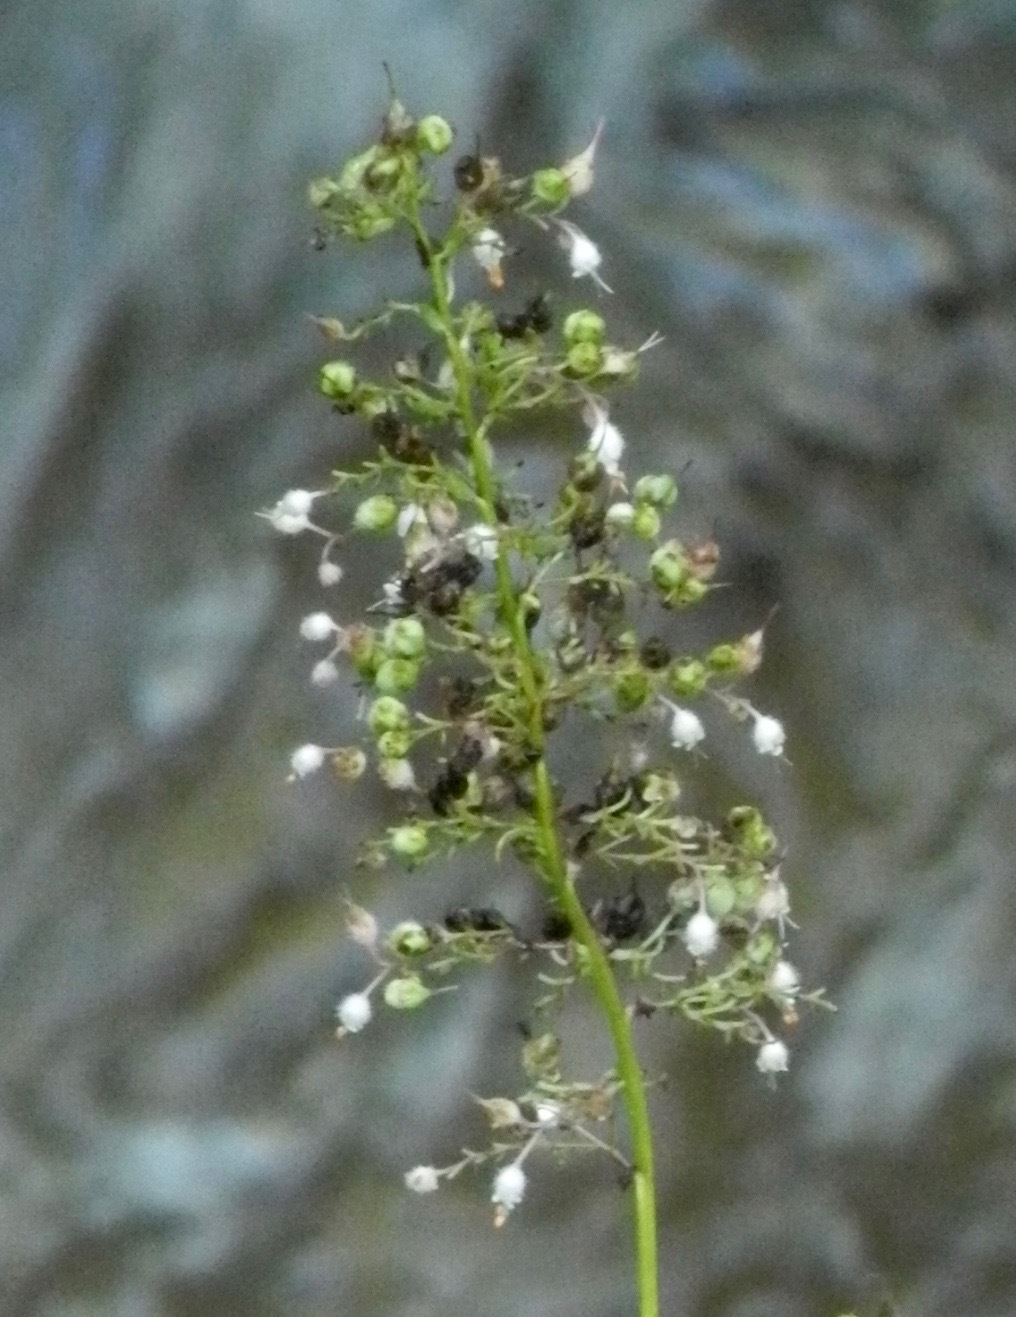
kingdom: Plantae
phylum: Tracheophyta
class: Magnoliopsida
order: Saxifragales
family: Saxifragaceae
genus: Heuchera
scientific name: Heuchera villosa
